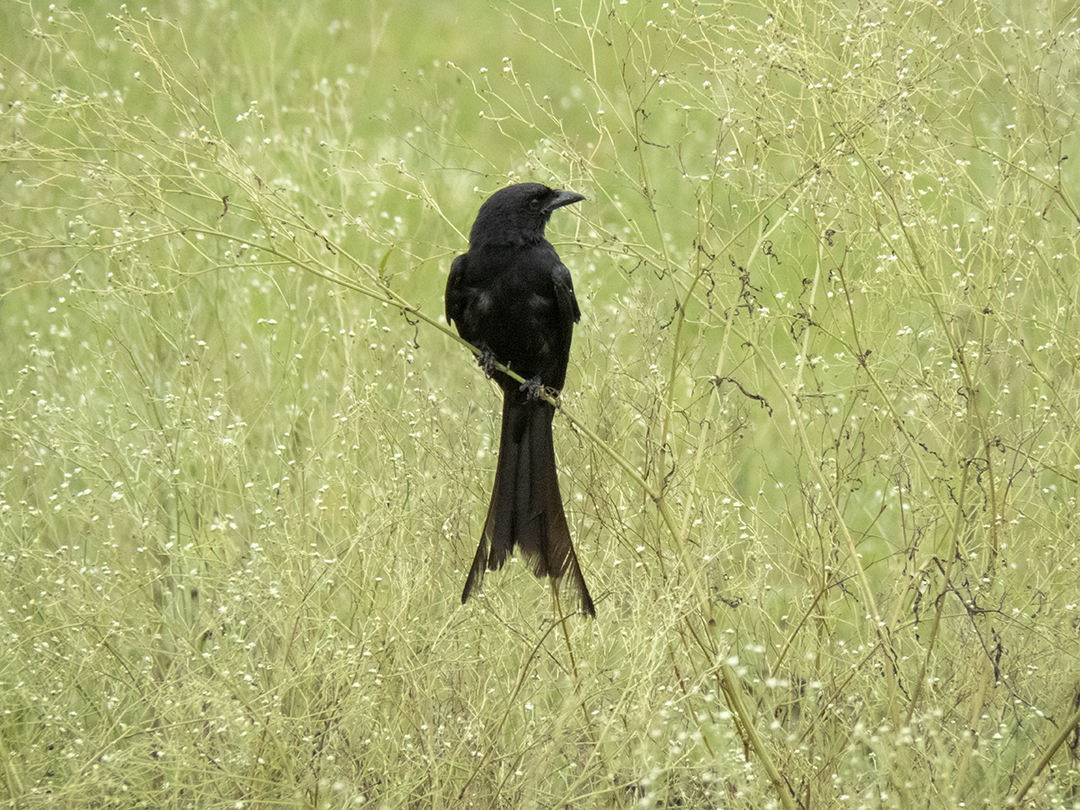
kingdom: Animalia
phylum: Chordata
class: Aves
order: Passeriformes
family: Dicruridae
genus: Dicrurus
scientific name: Dicrurus macrocercus
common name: Black drongo
